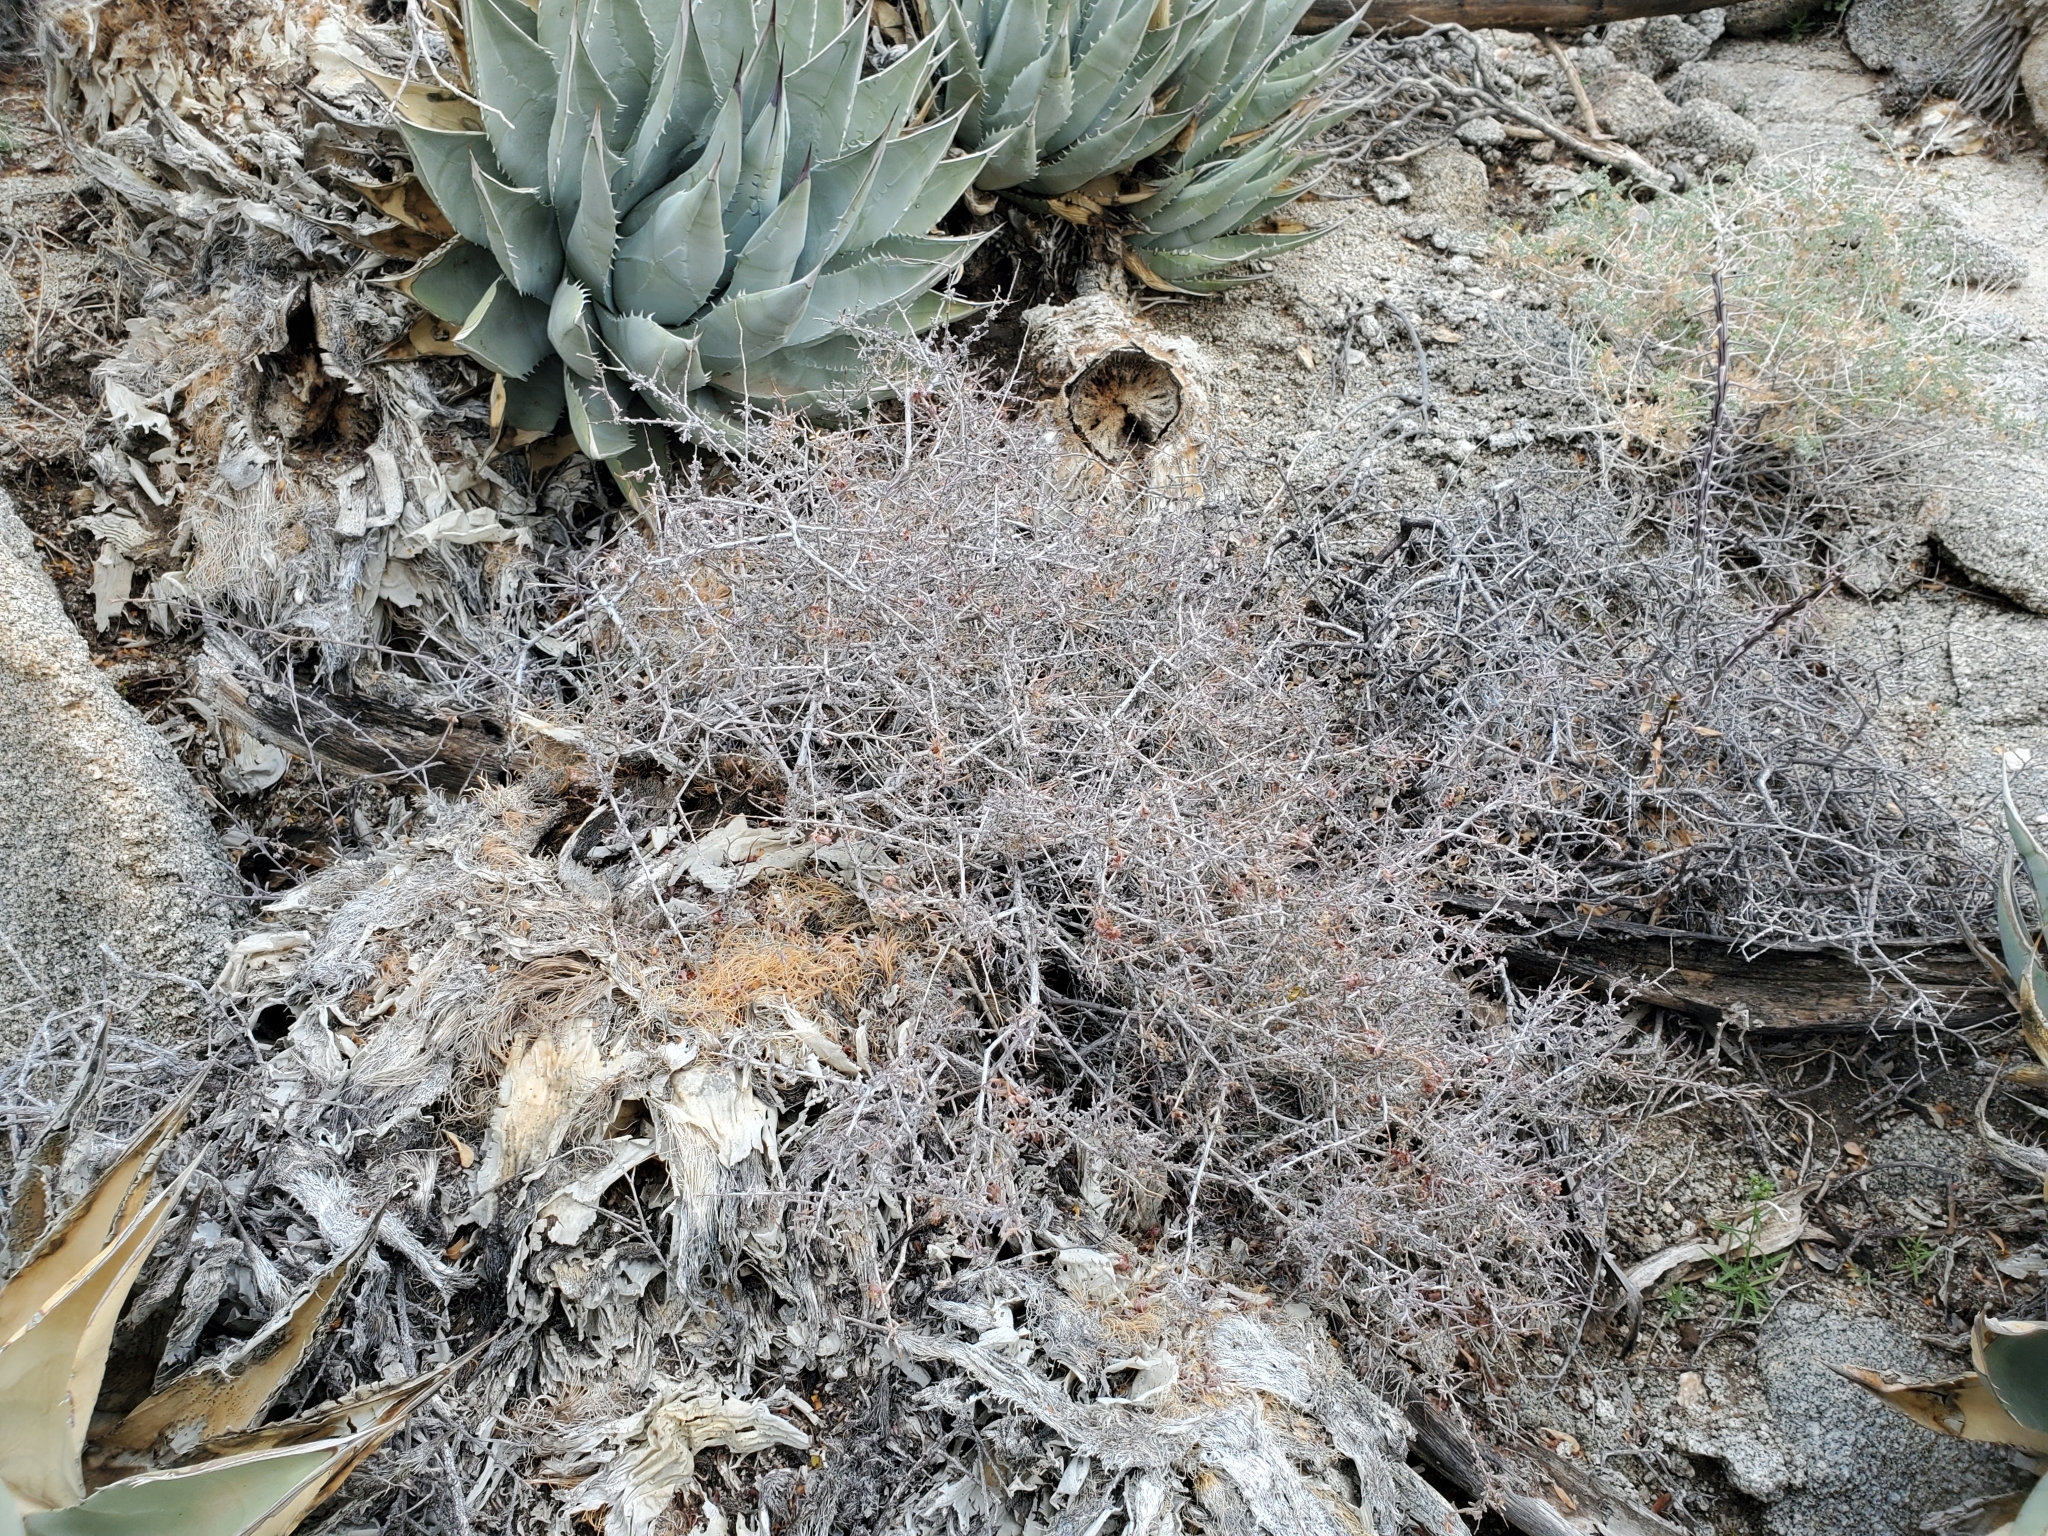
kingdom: Plantae
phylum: Tracheophyta
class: Magnoliopsida
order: Zygophyllales
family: Krameriaceae
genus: Krameria
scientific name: Krameria erecta
